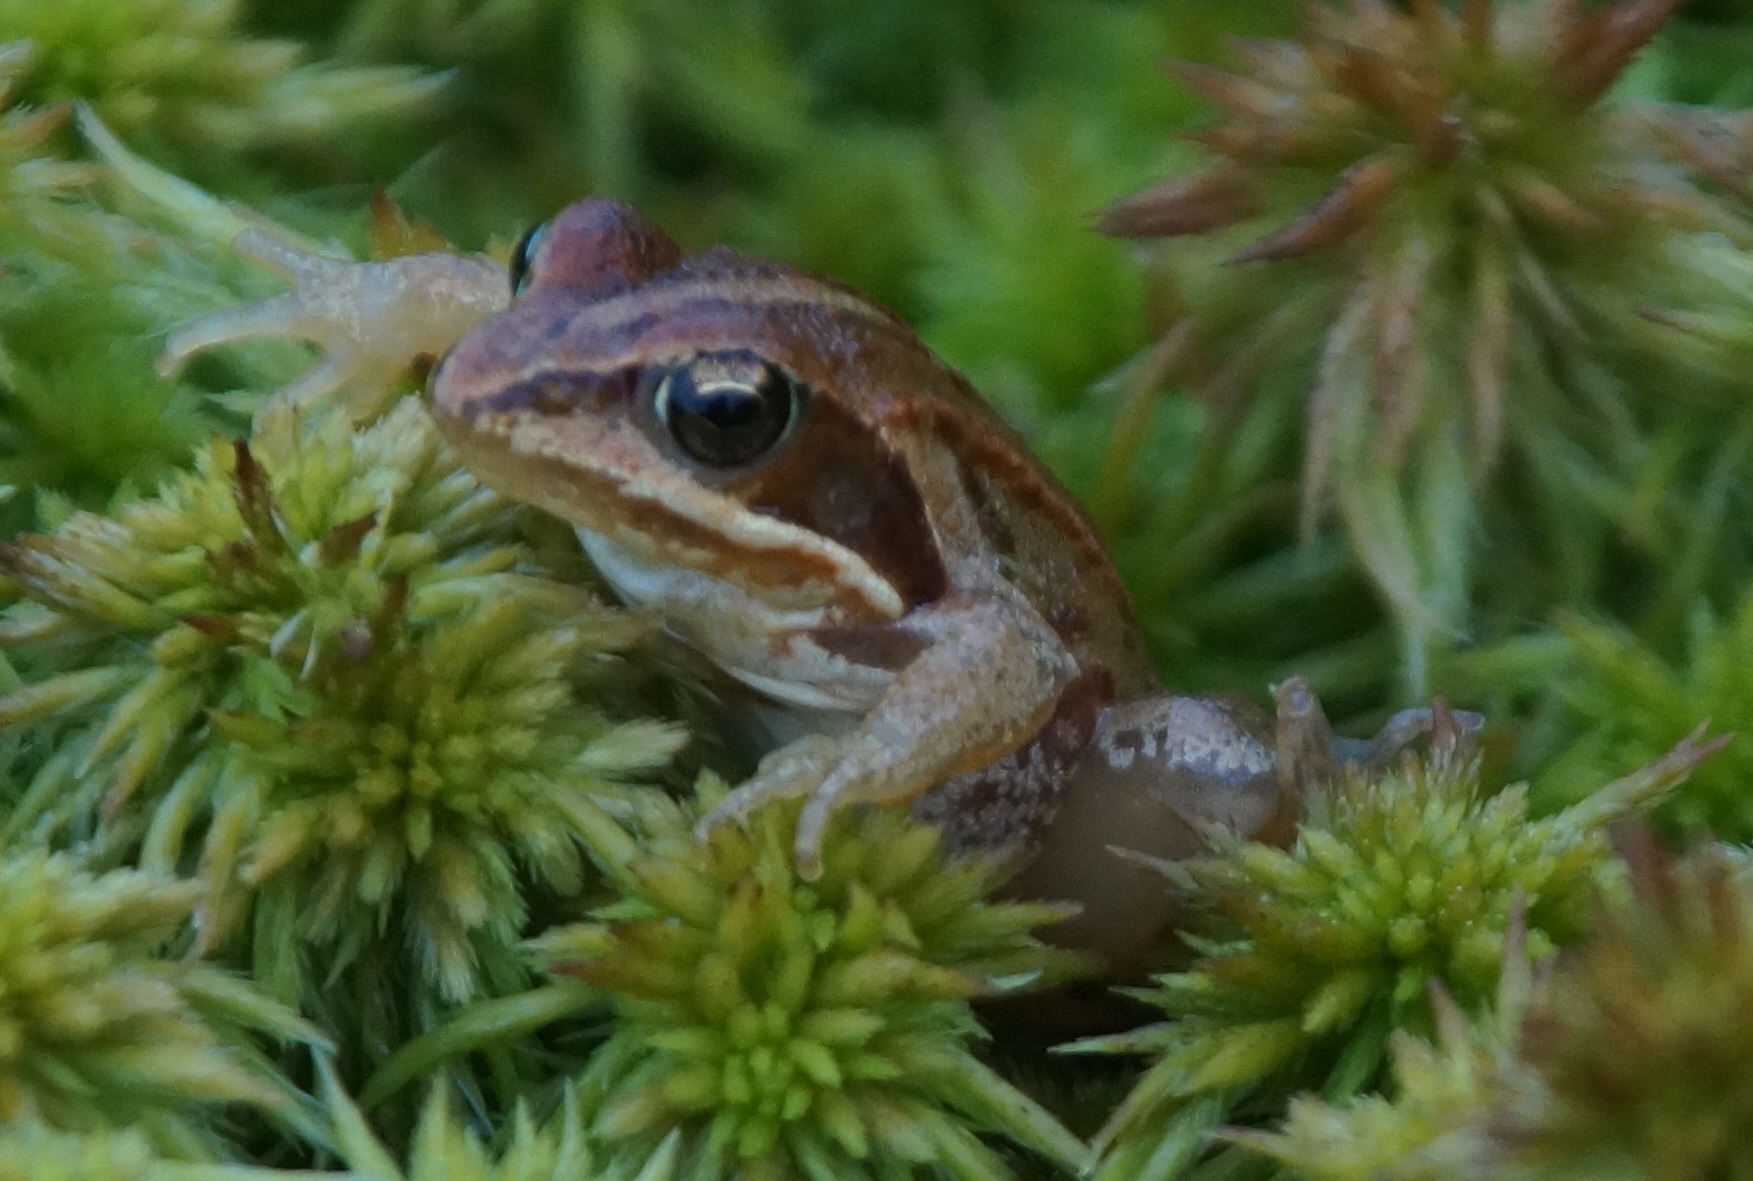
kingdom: Animalia
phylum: Chordata
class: Amphibia
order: Anura
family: Ranidae
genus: Rana
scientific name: Rana arvalis
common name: Moor frog
